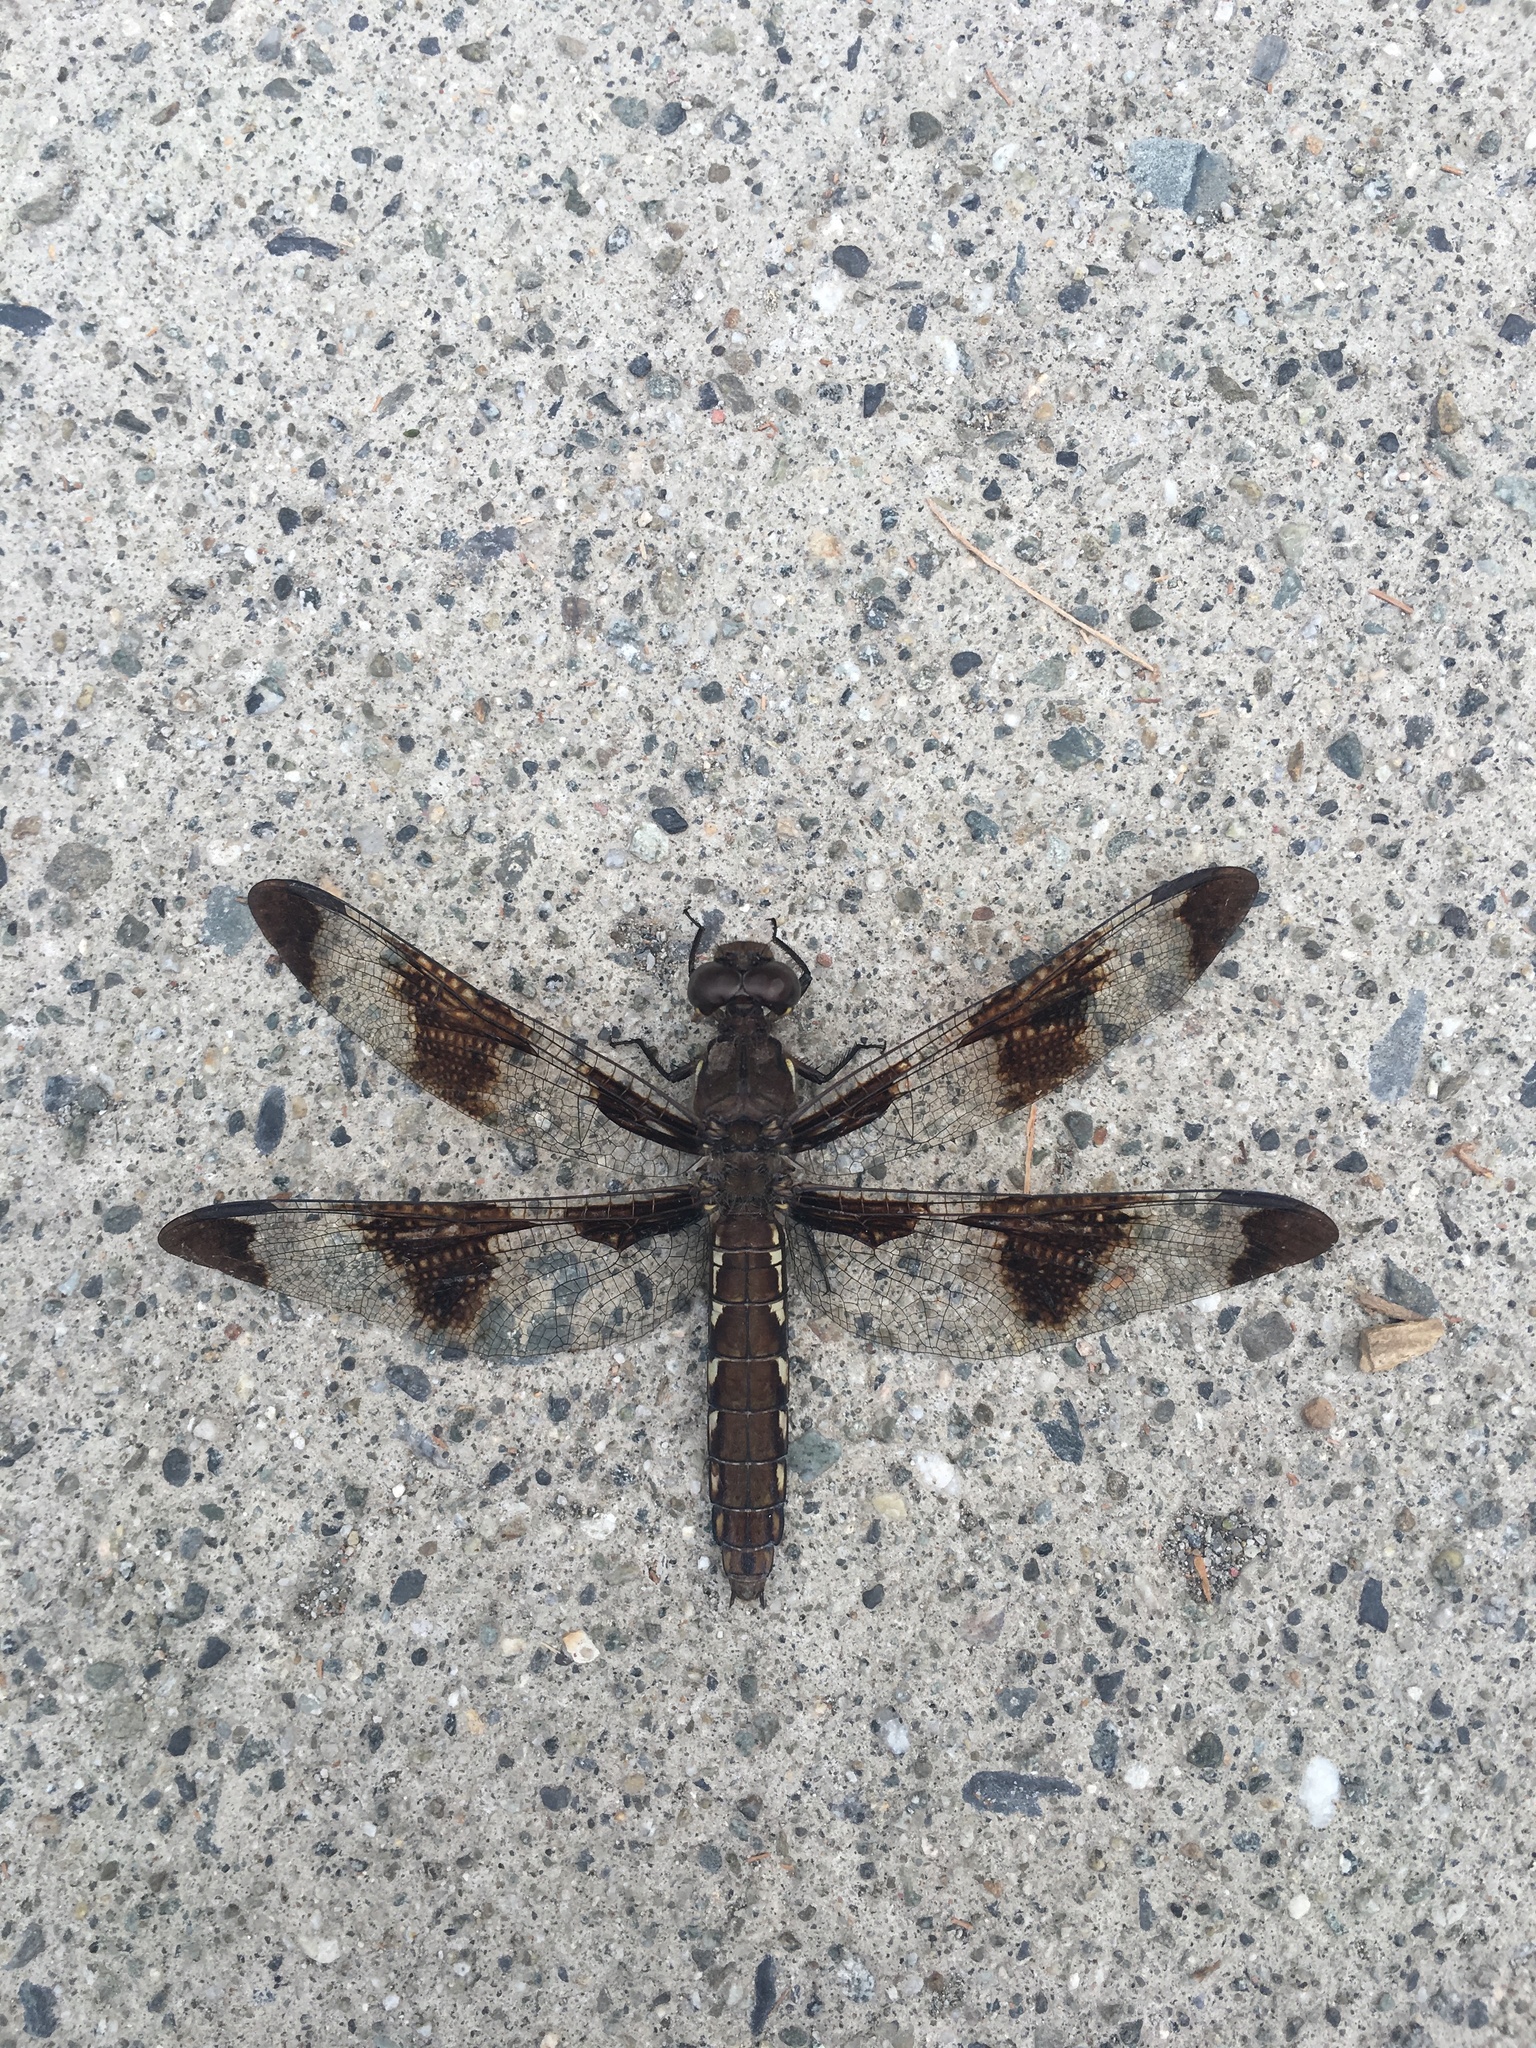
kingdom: Animalia
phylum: Arthropoda
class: Insecta
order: Odonata
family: Libellulidae
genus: Plathemis
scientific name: Plathemis lydia
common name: Common whitetail
